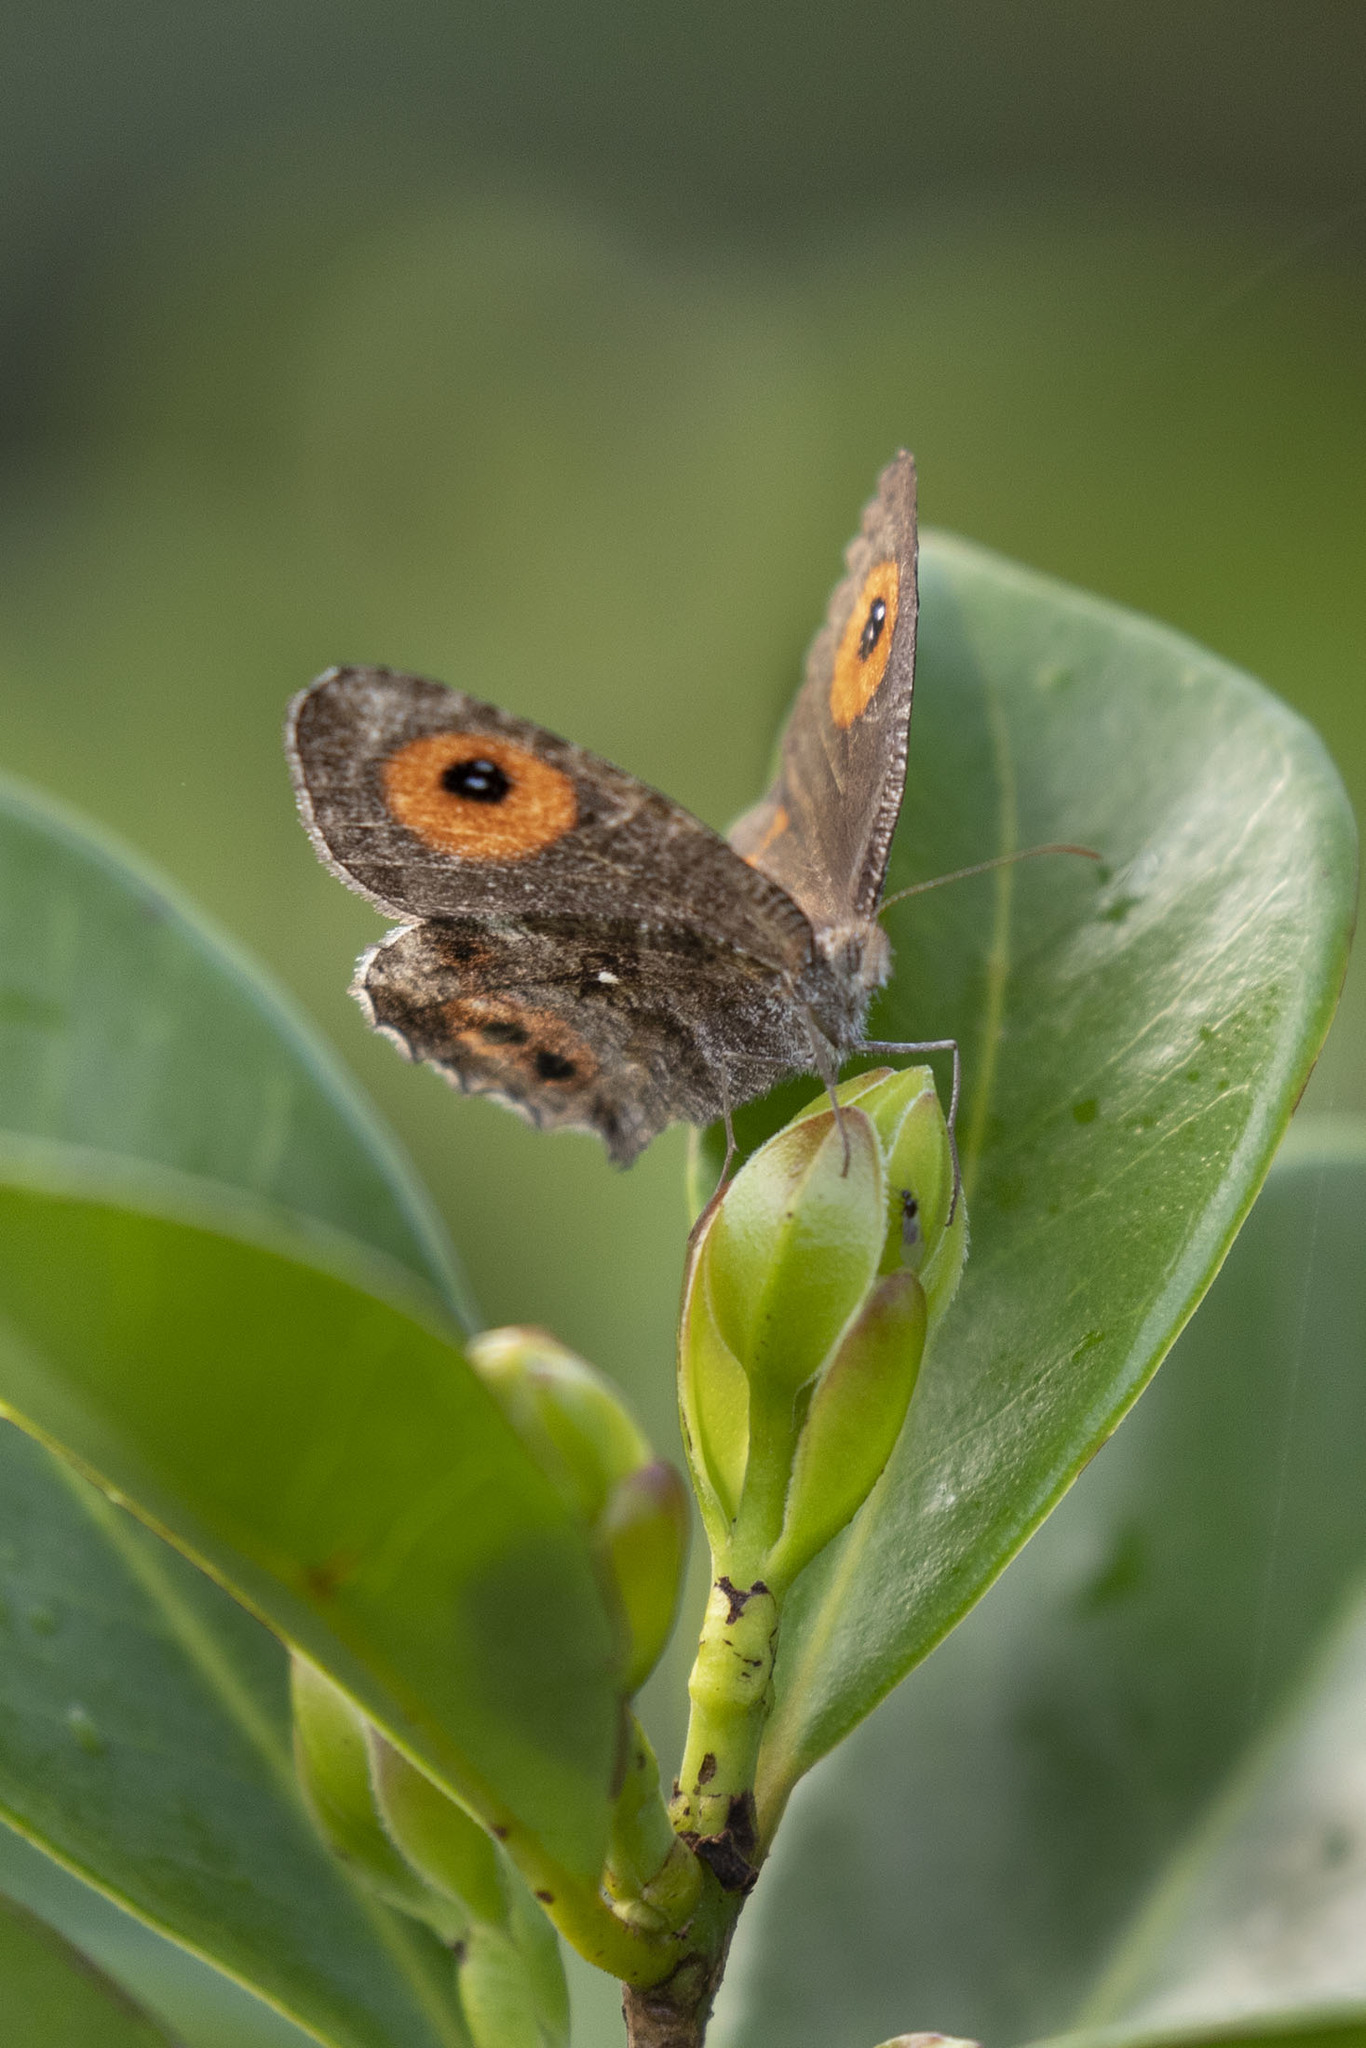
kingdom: Animalia
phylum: Arthropoda
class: Insecta
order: Lepidoptera
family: Nymphalidae
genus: Ypthima
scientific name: Ypthima Strabena tamatavae
